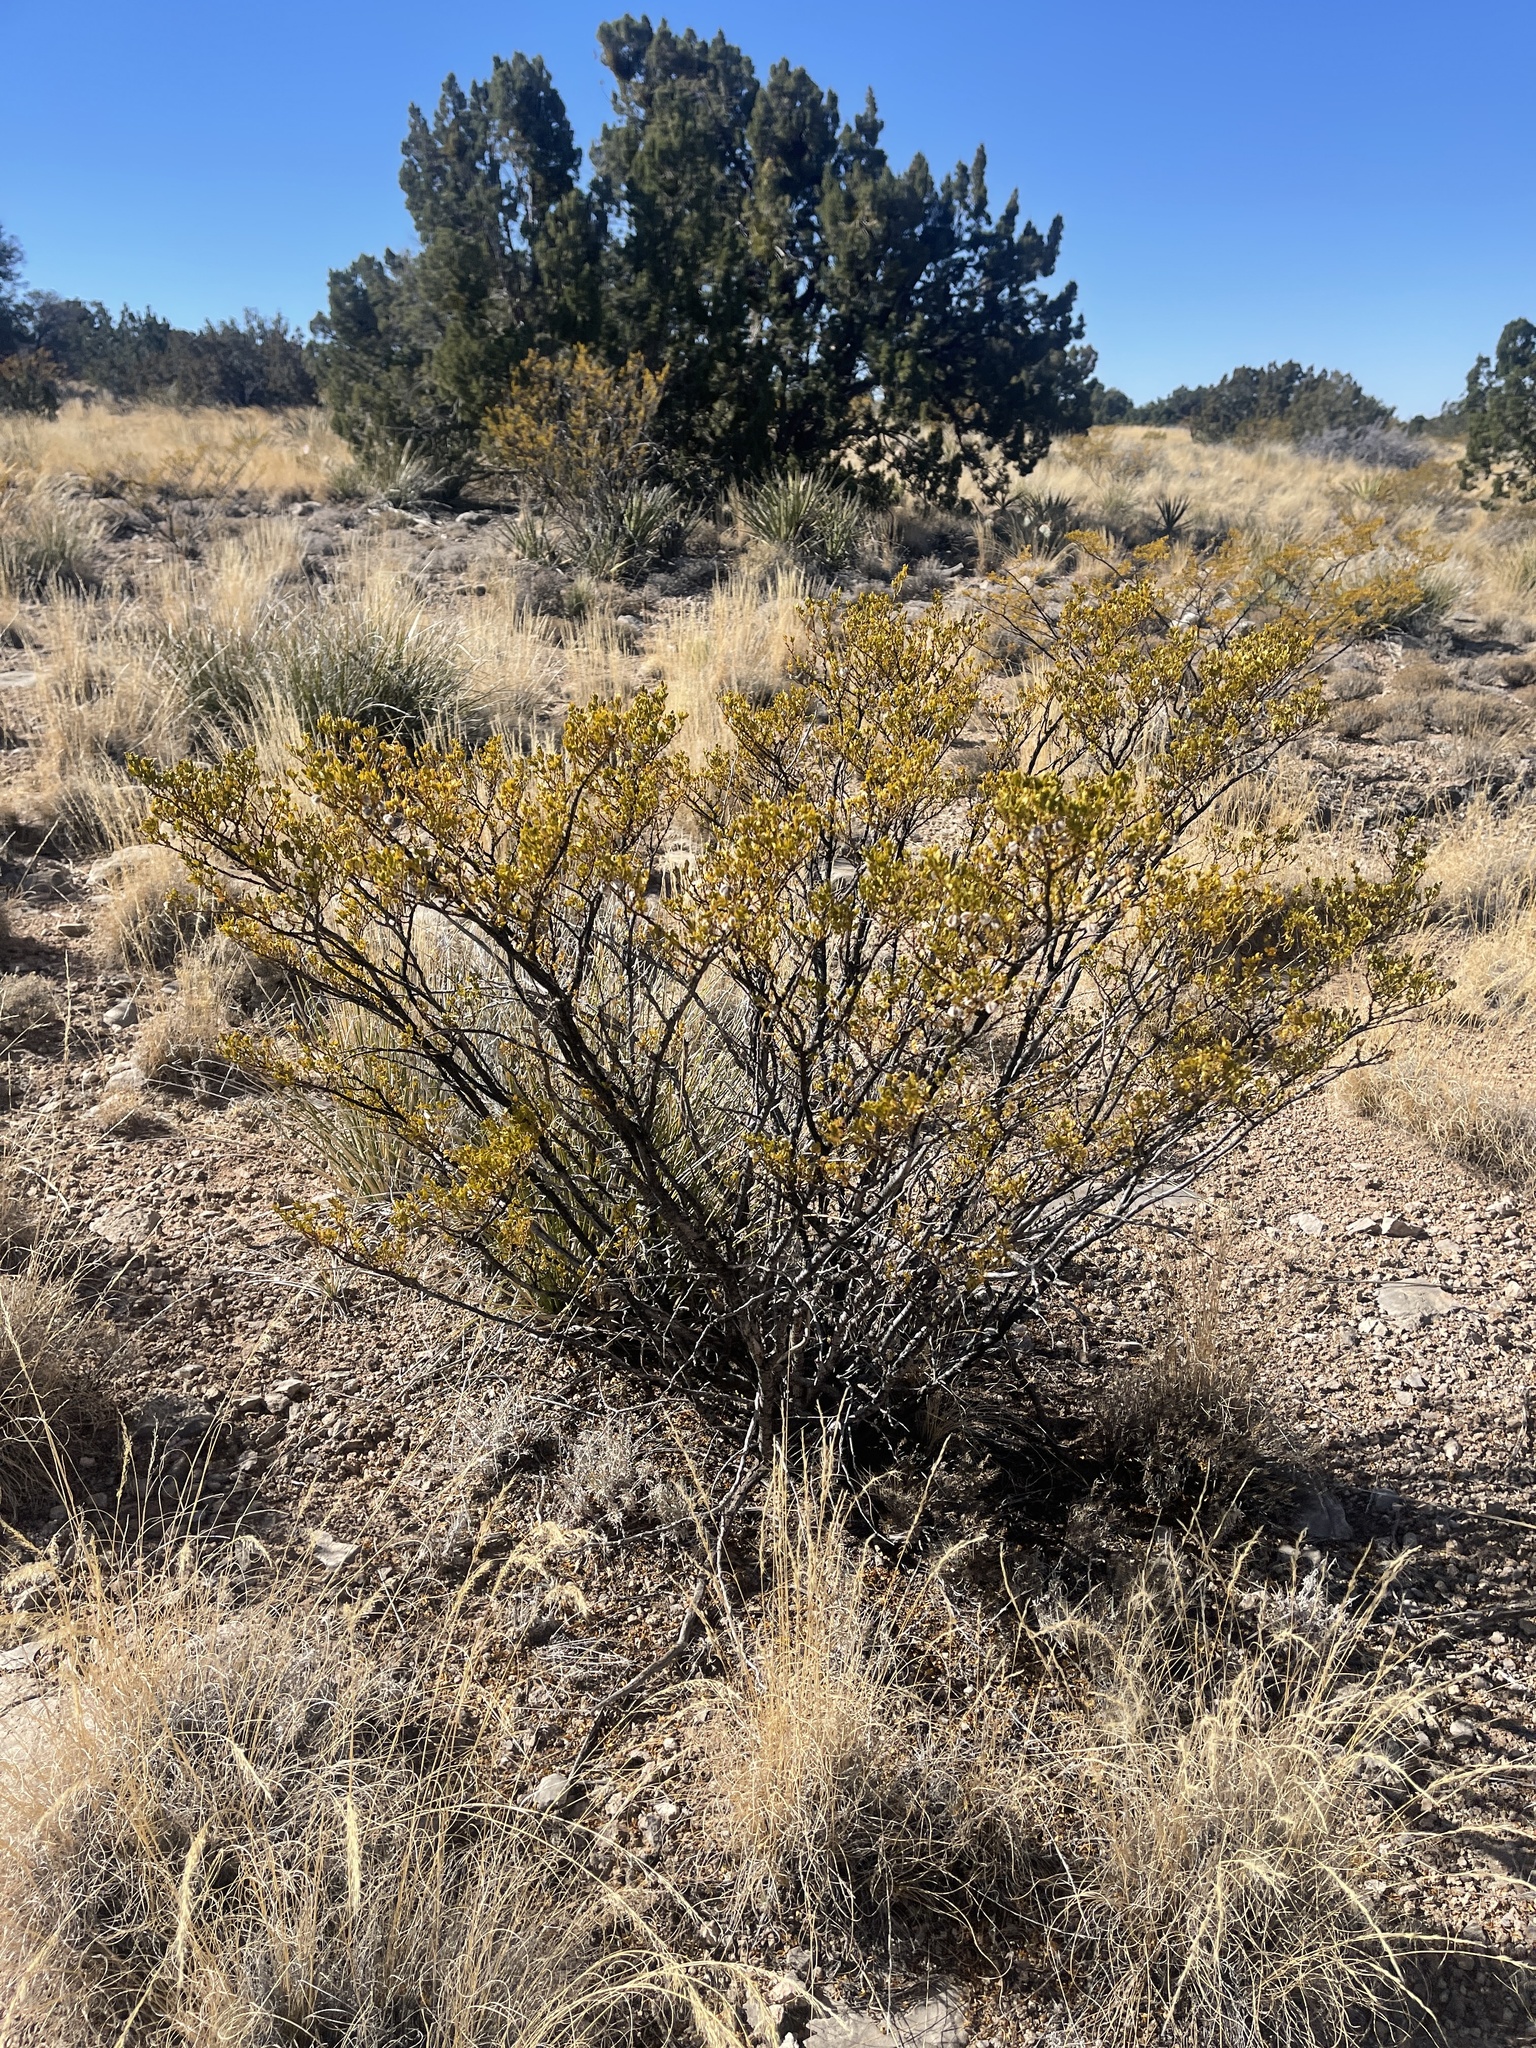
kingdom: Plantae
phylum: Tracheophyta
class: Magnoliopsida
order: Zygophyllales
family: Zygophyllaceae
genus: Larrea
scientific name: Larrea tridentata
